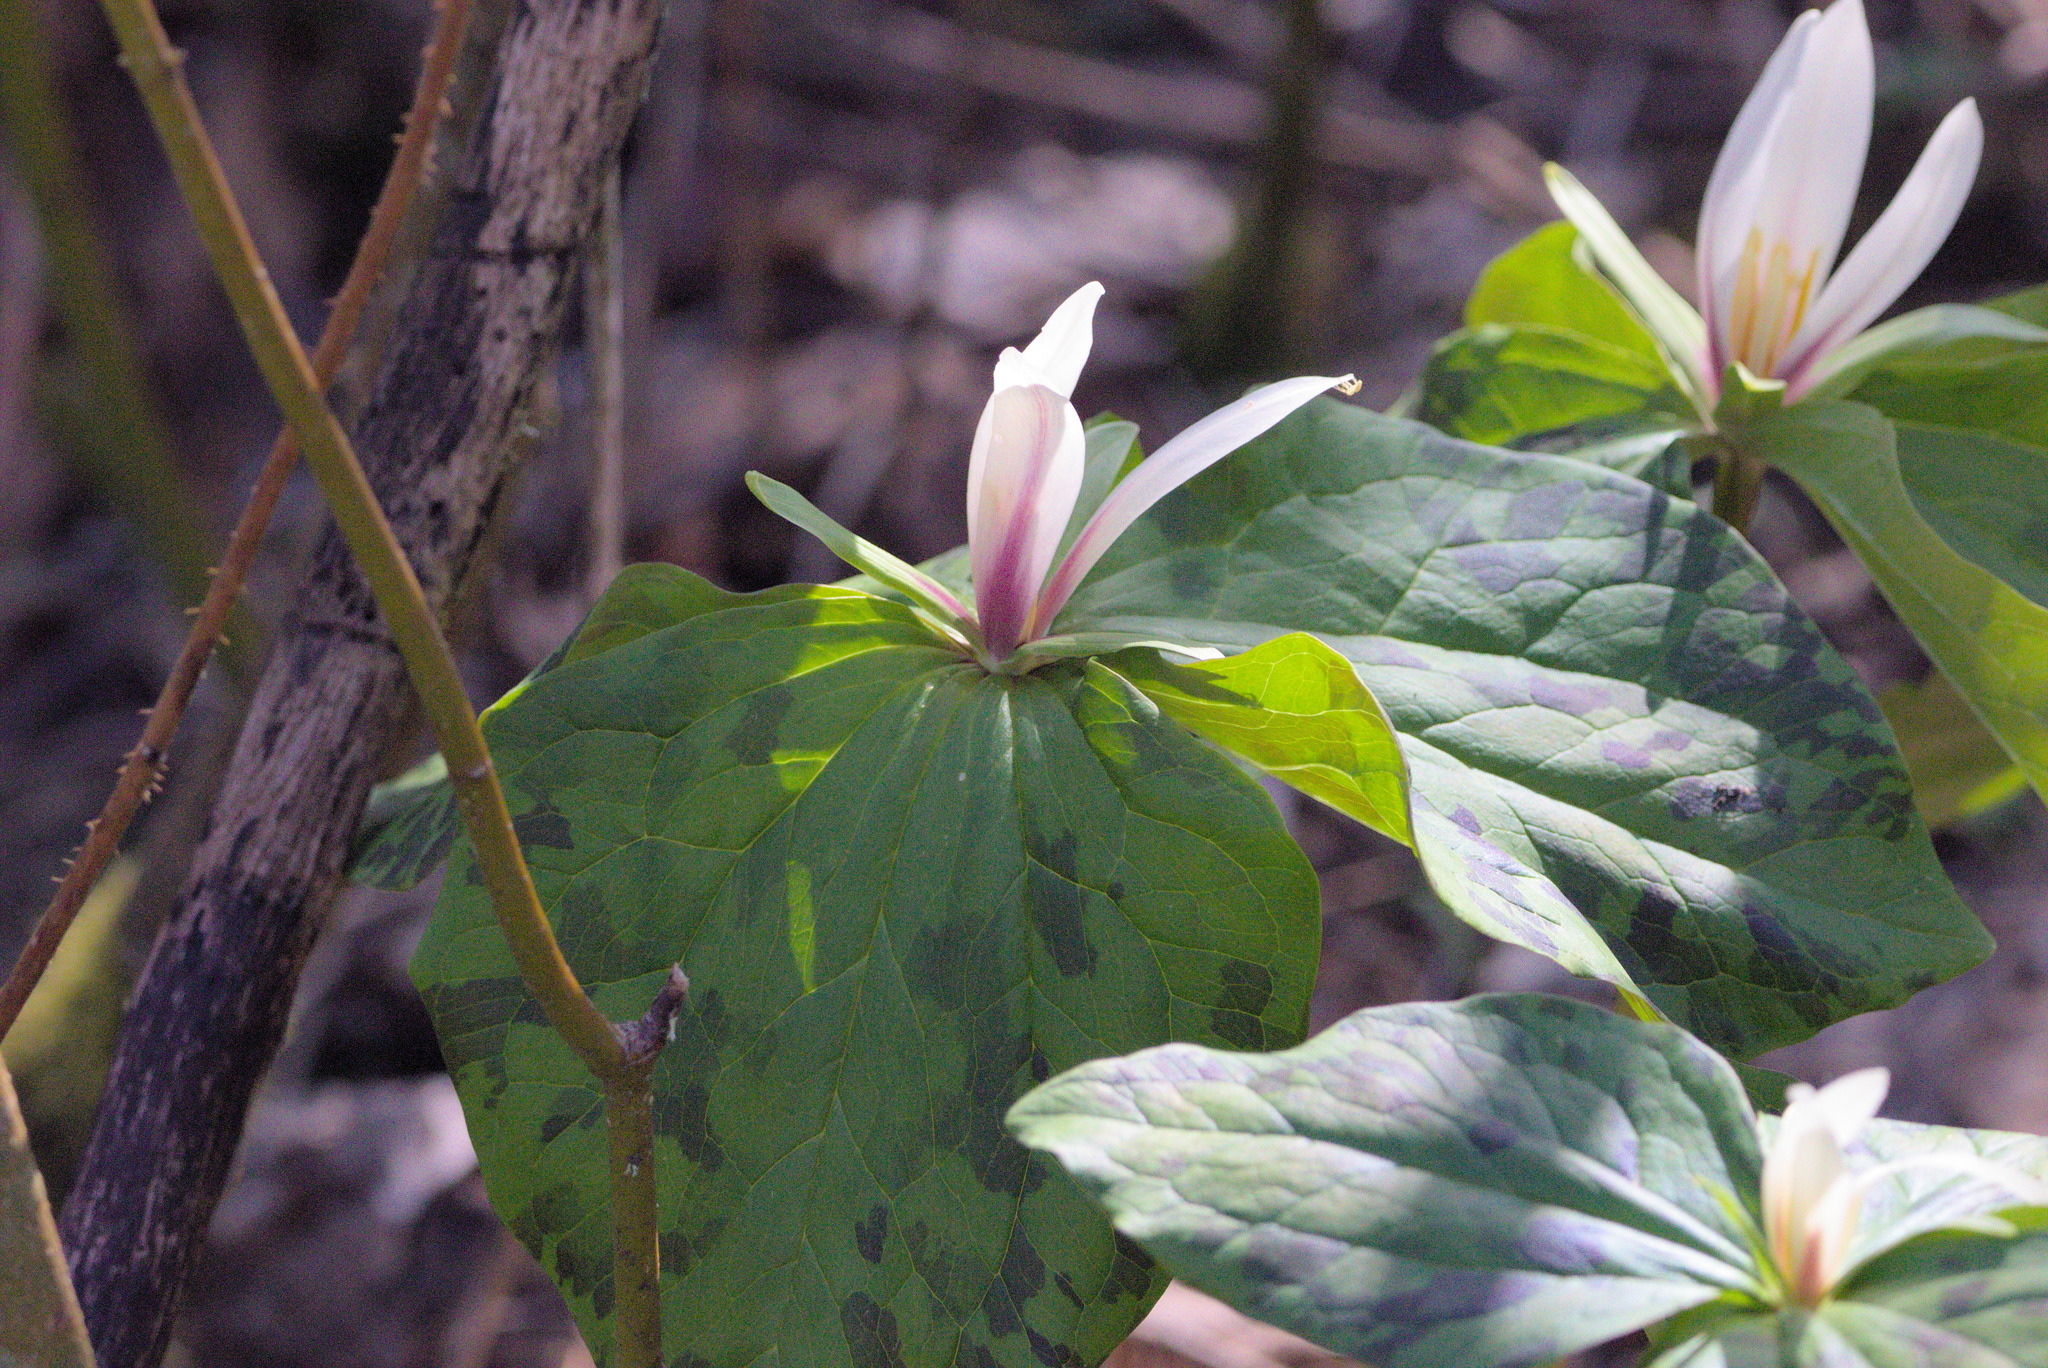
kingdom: Plantae
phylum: Tracheophyta
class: Liliopsida
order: Liliales
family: Melanthiaceae
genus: Trillium
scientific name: Trillium albidum
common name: Freeman's trillium
